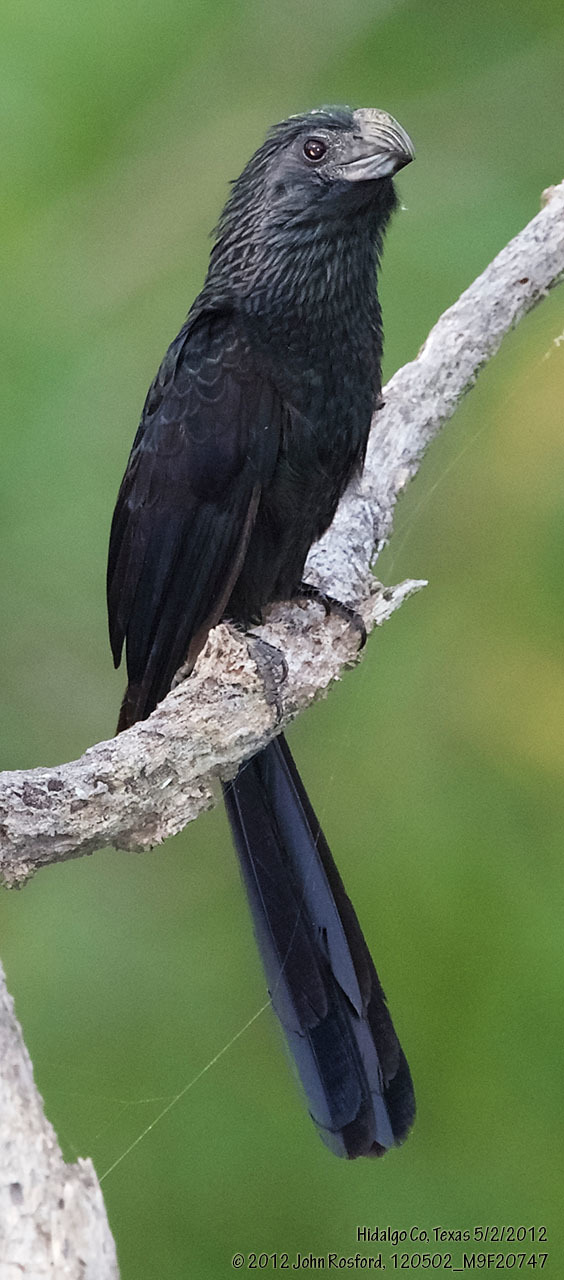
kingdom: Animalia
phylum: Chordata
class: Aves
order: Cuculiformes
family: Cuculidae
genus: Crotophaga
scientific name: Crotophaga sulcirostris
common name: Groove-billed ani
